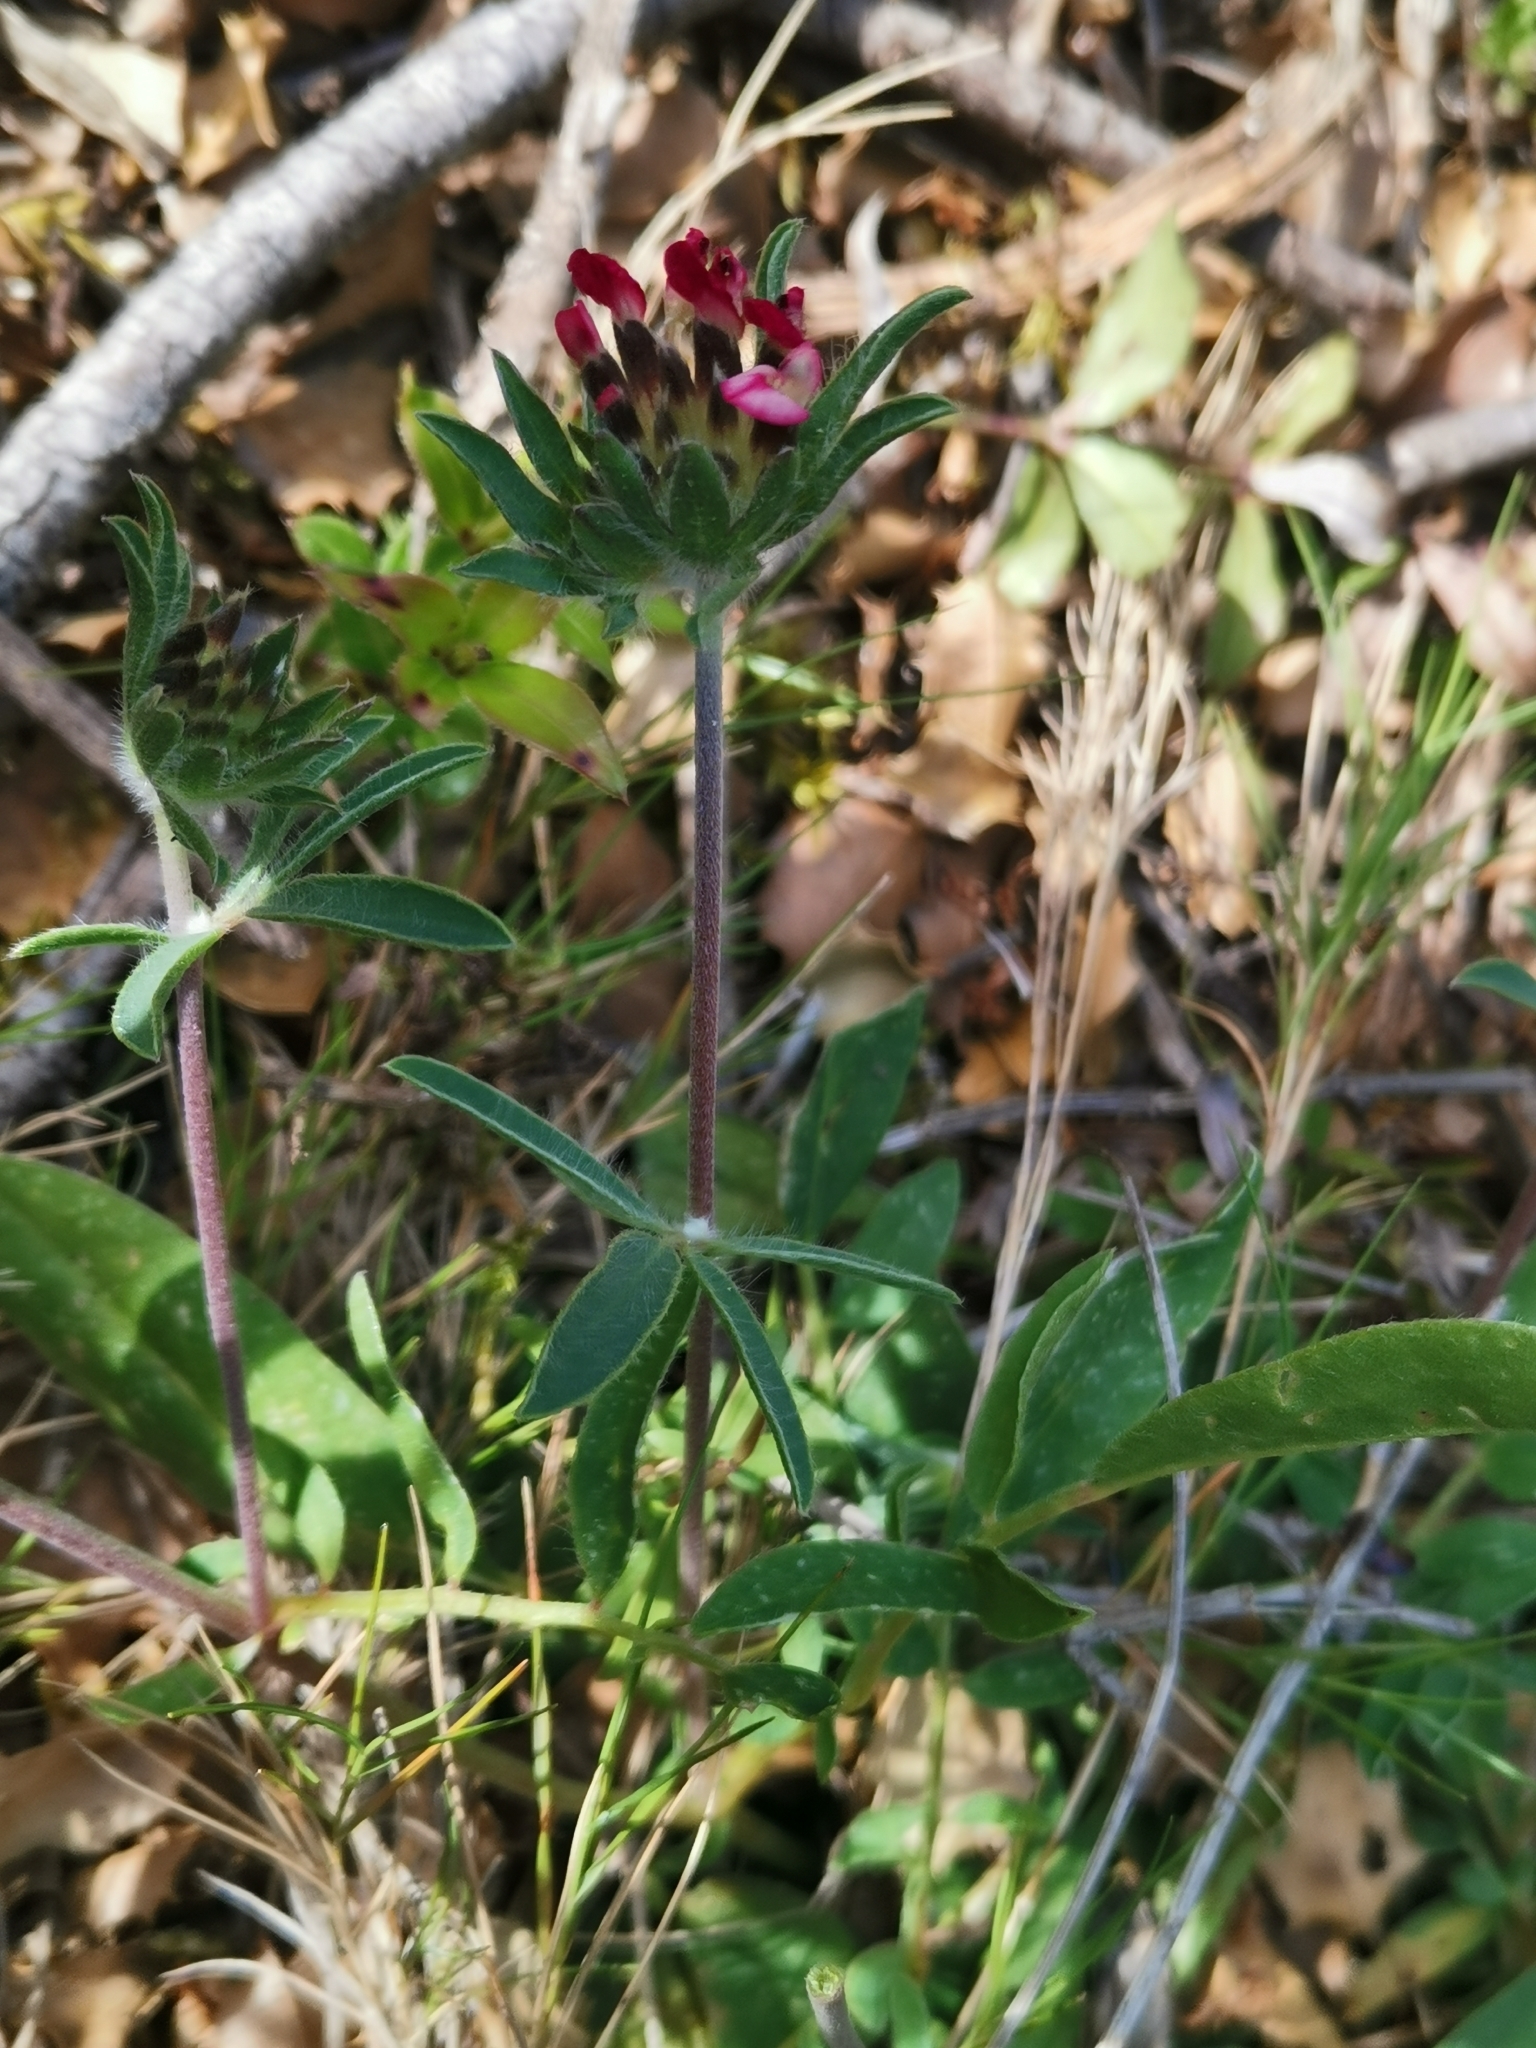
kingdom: Plantae
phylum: Tracheophyta
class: Magnoliopsida
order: Fabales
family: Fabaceae
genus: Anthyllis
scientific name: Anthyllis vulneraria
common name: Kidney vetch
